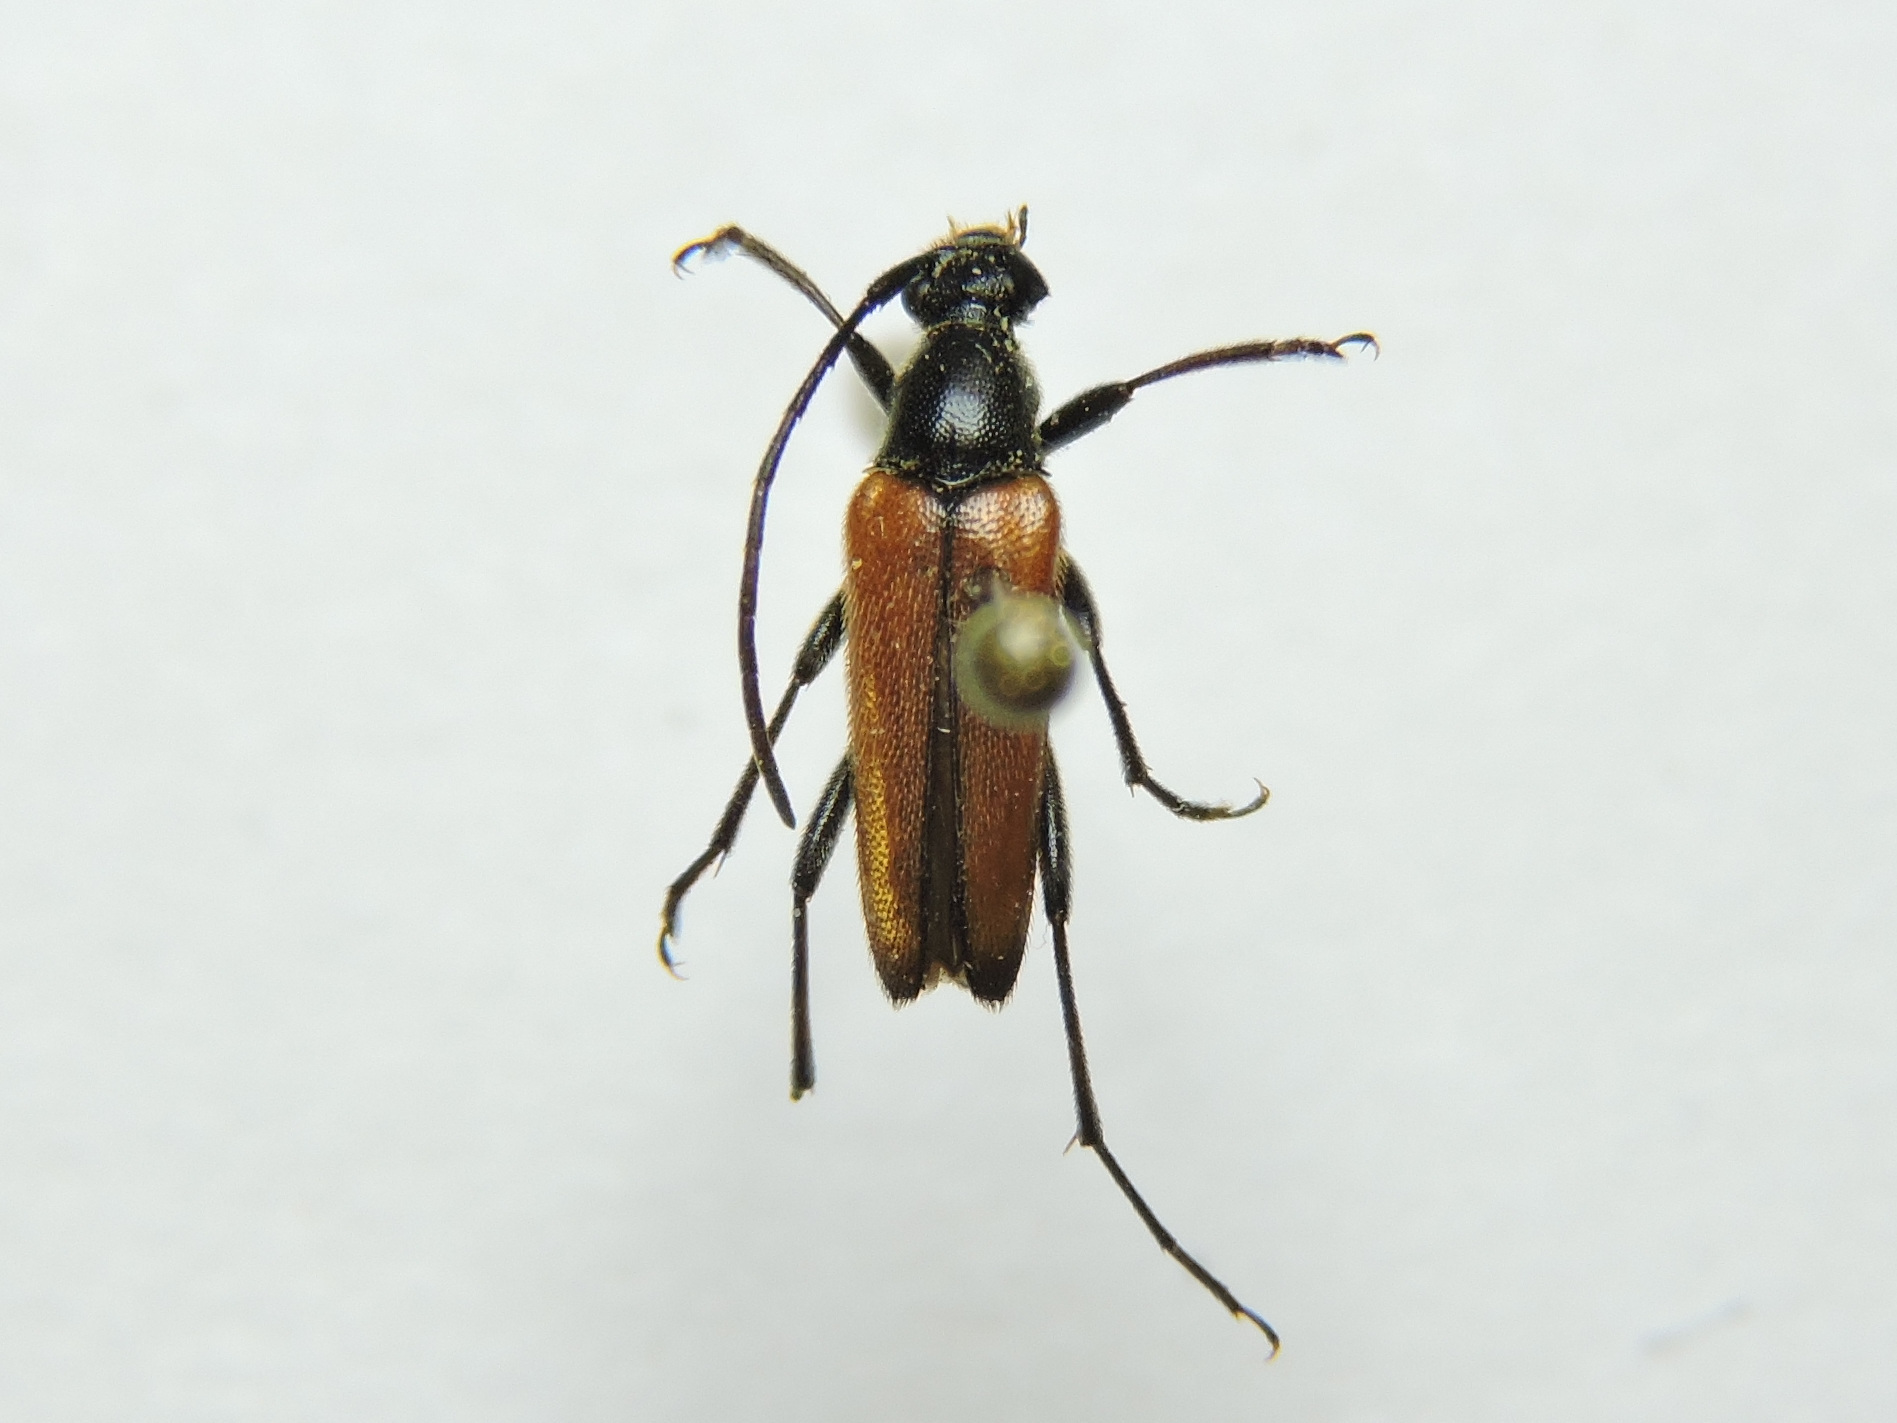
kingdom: Animalia
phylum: Arthropoda
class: Insecta
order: Coleoptera
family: Cerambycidae
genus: Stenurella
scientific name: Stenurella bifasciata
